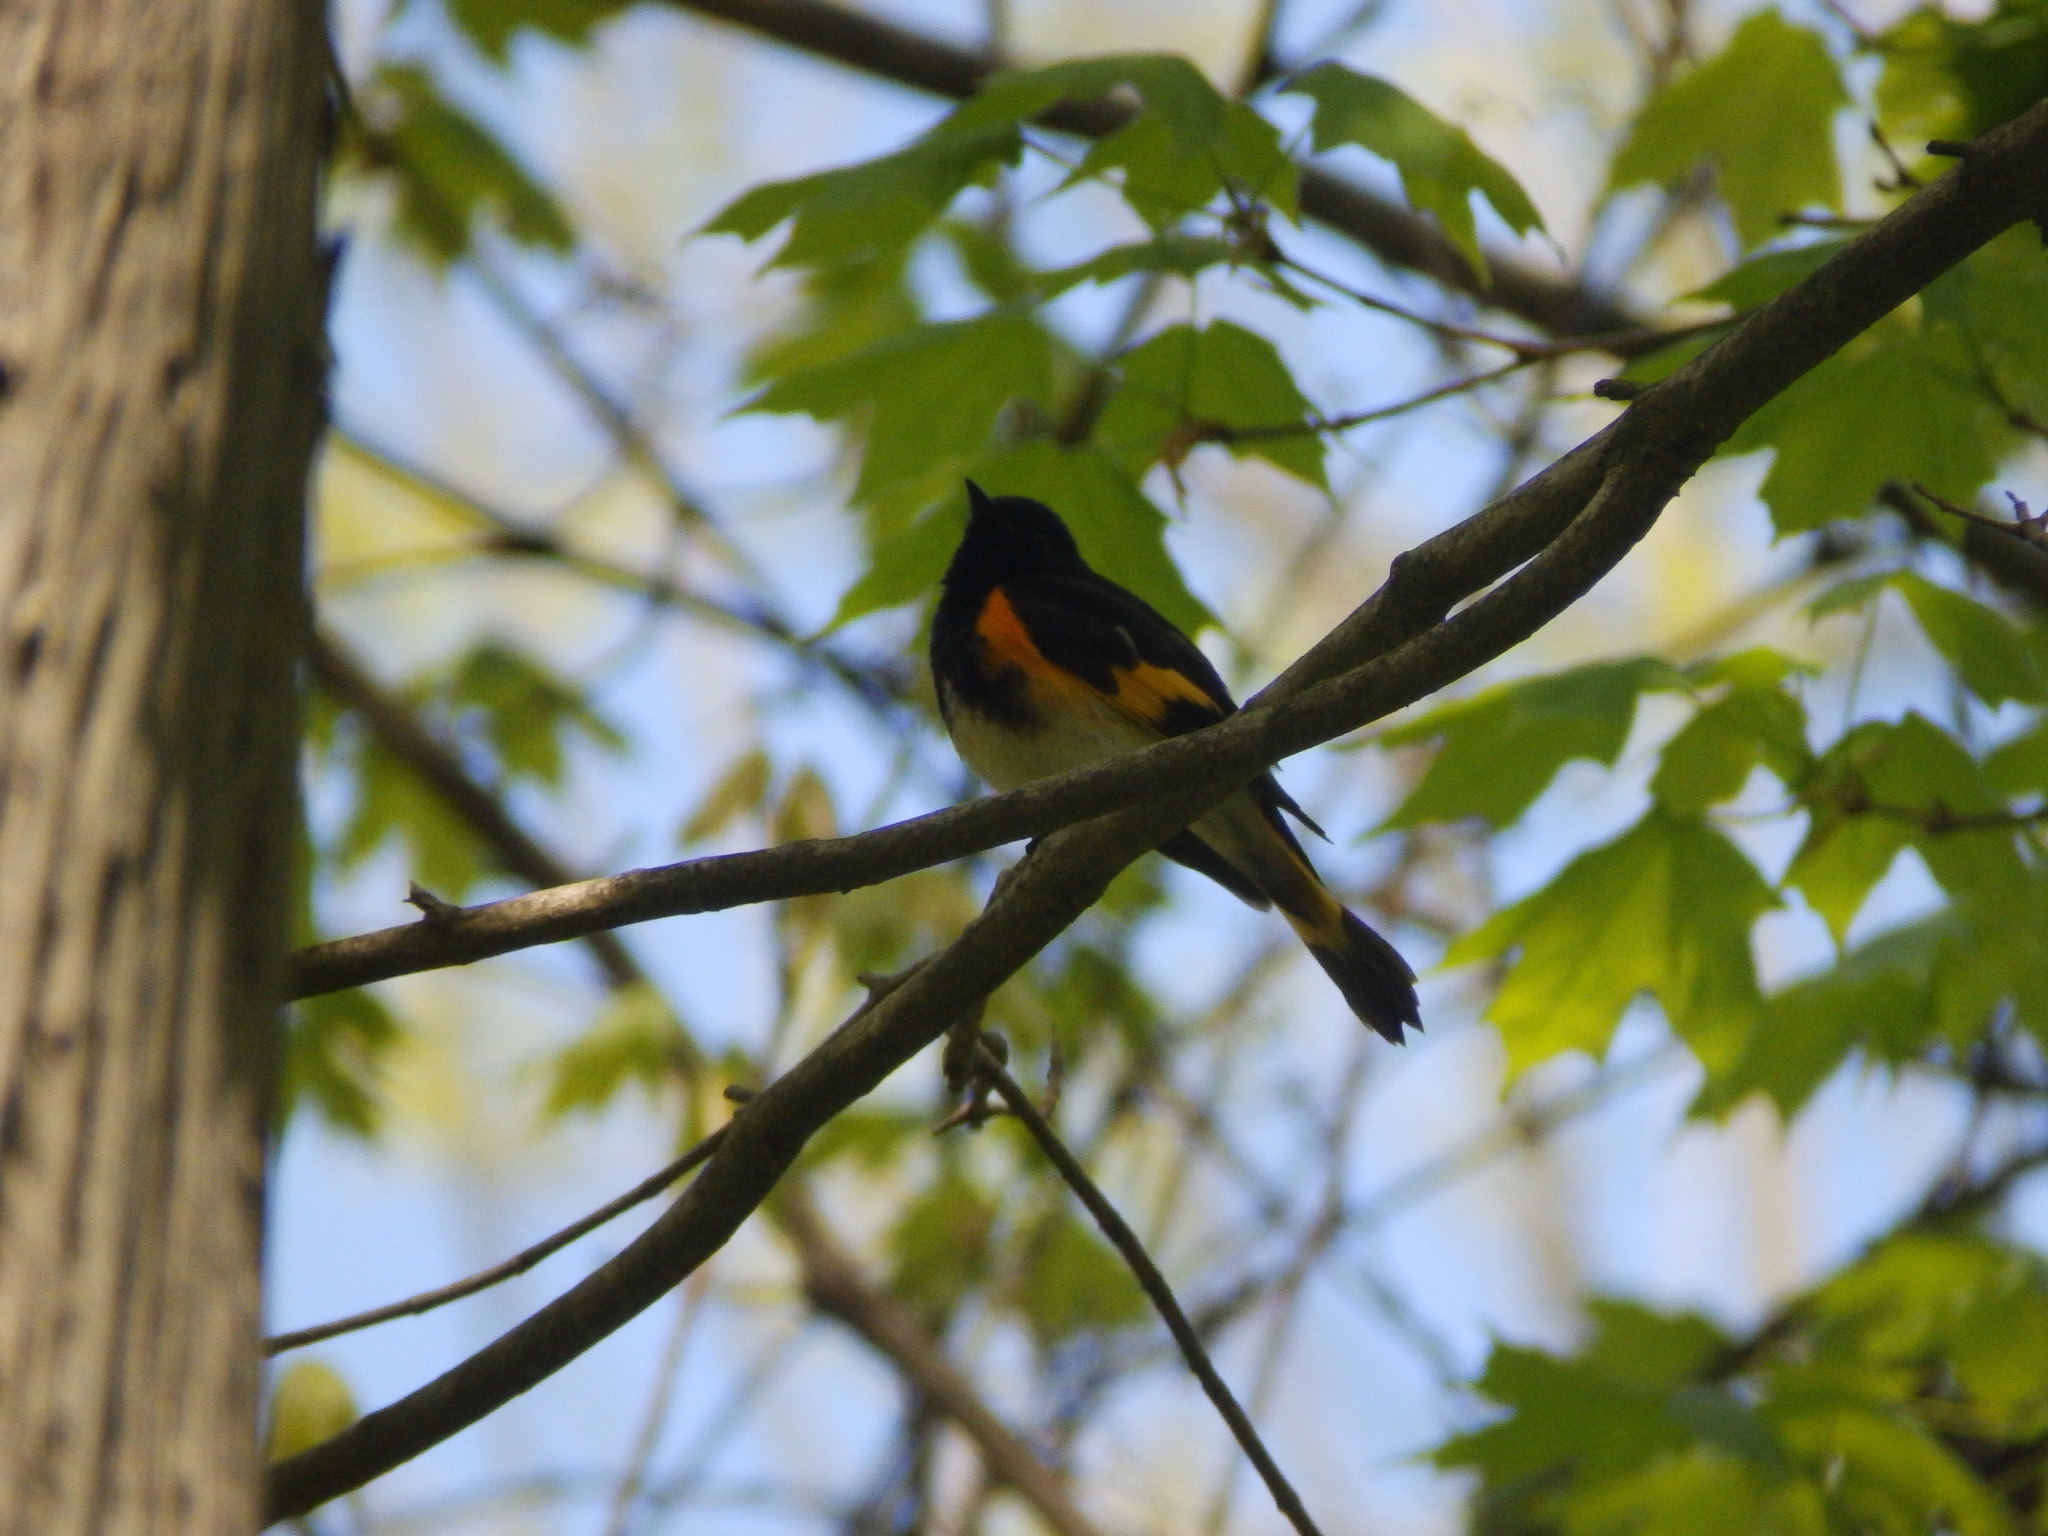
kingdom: Animalia
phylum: Chordata
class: Aves
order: Passeriformes
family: Parulidae
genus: Setophaga
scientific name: Setophaga ruticilla
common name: American redstart
